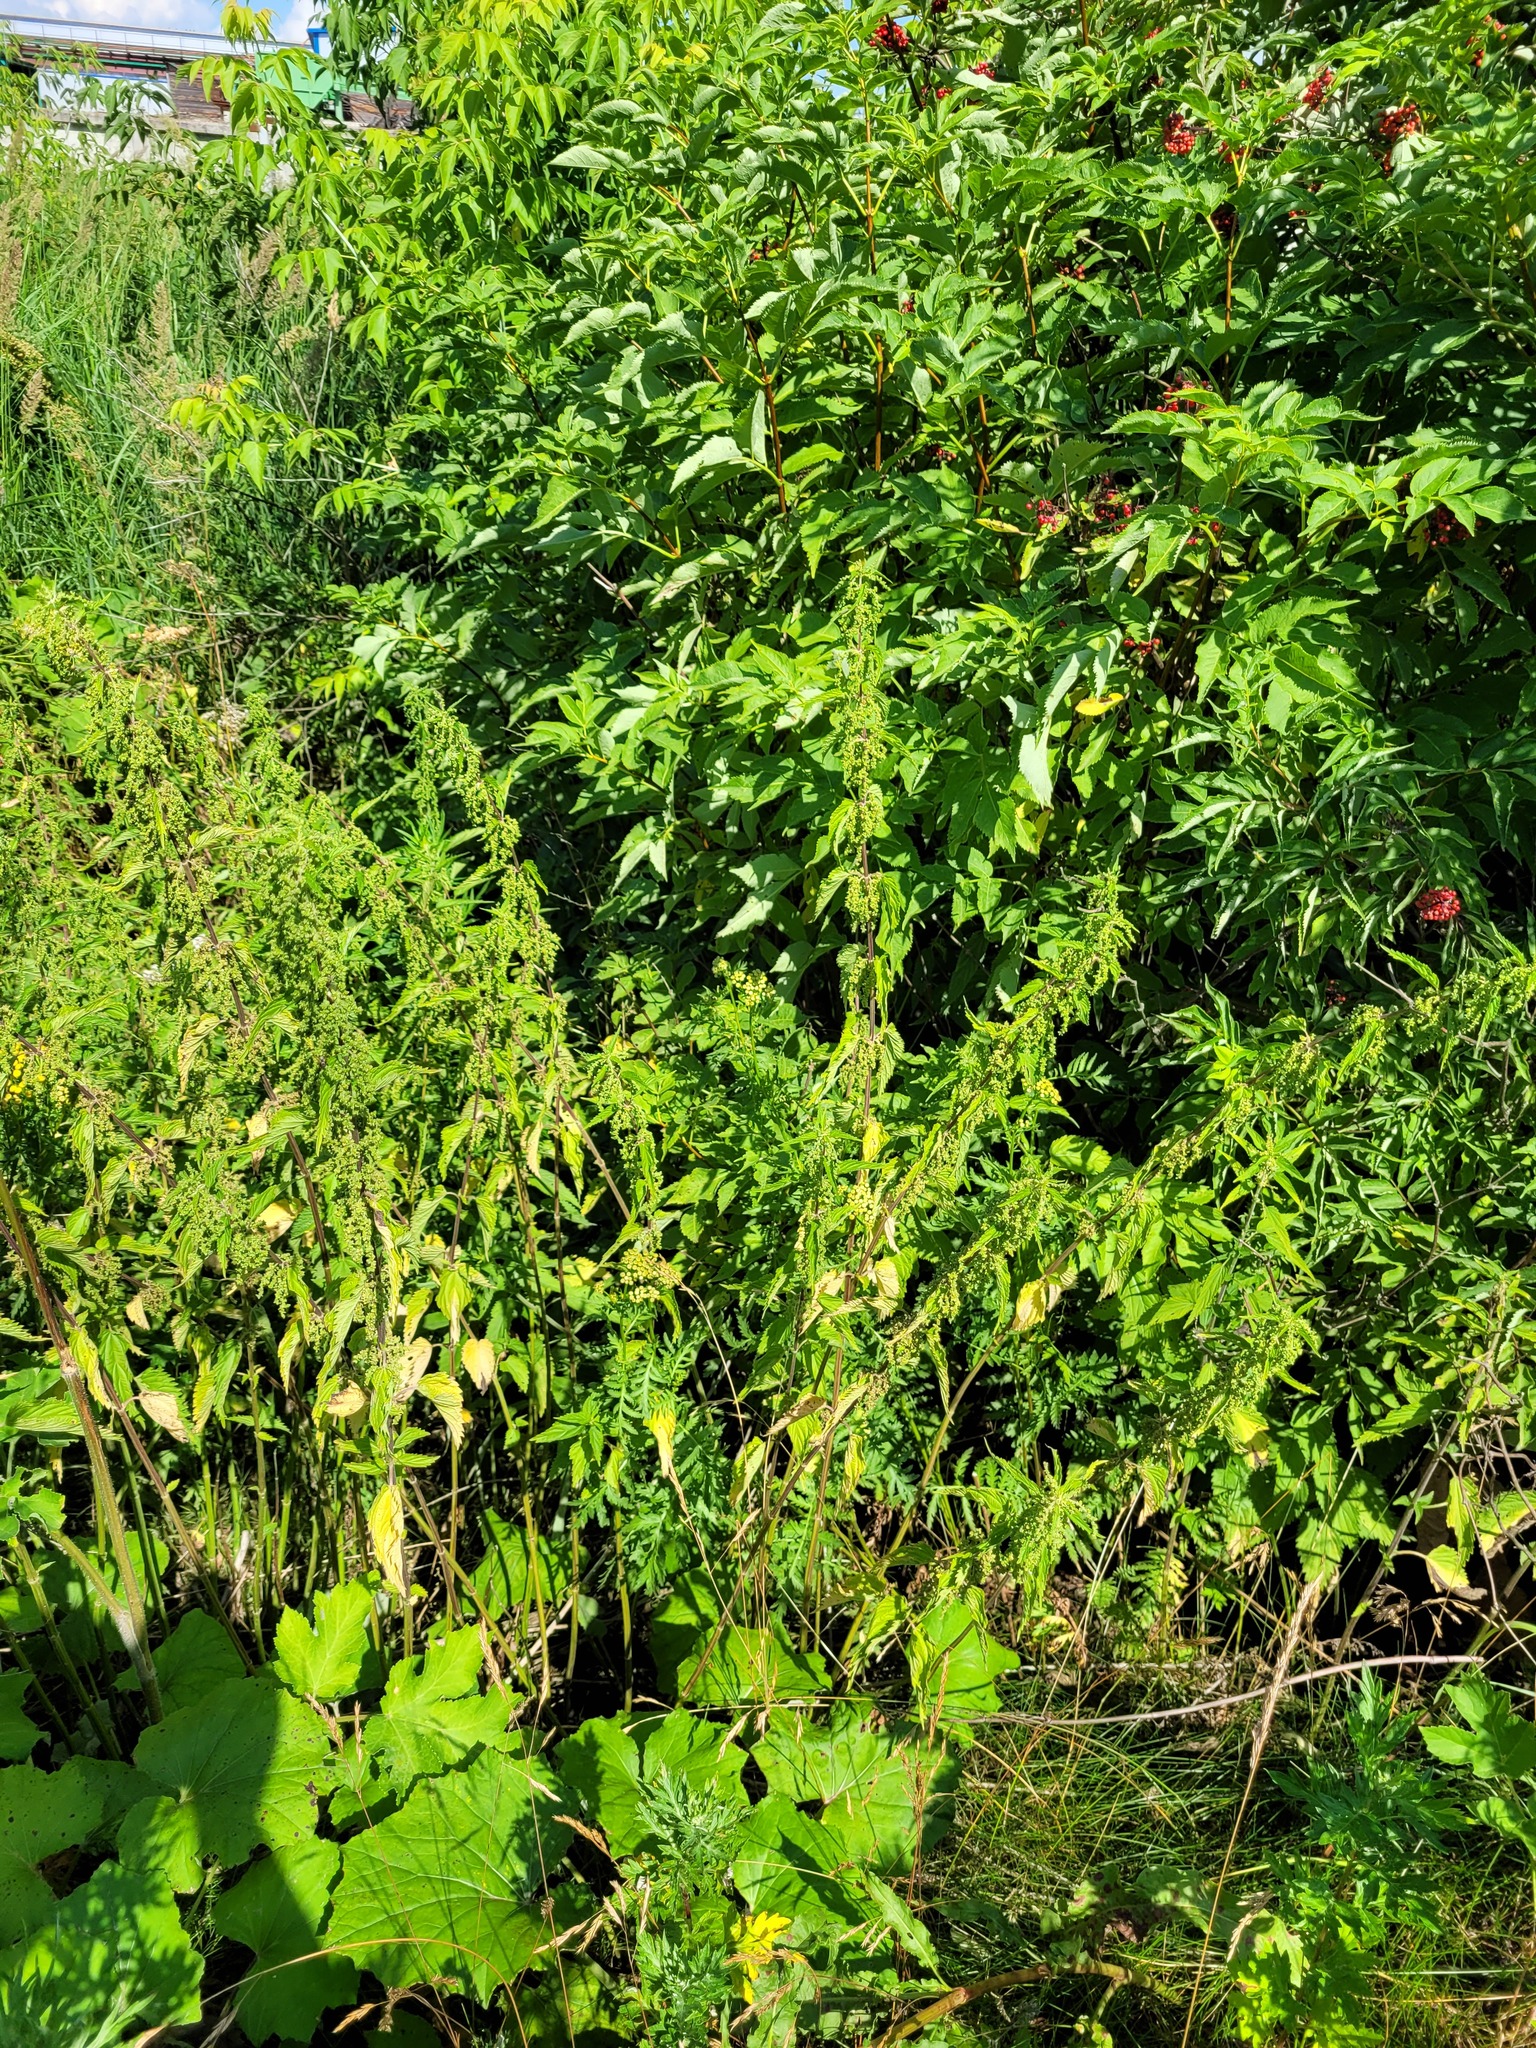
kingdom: Plantae
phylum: Tracheophyta
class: Magnoliopsida
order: Rosales
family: Urticaceae
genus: Urtica
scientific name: Urtica dioica
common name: Common nettle
